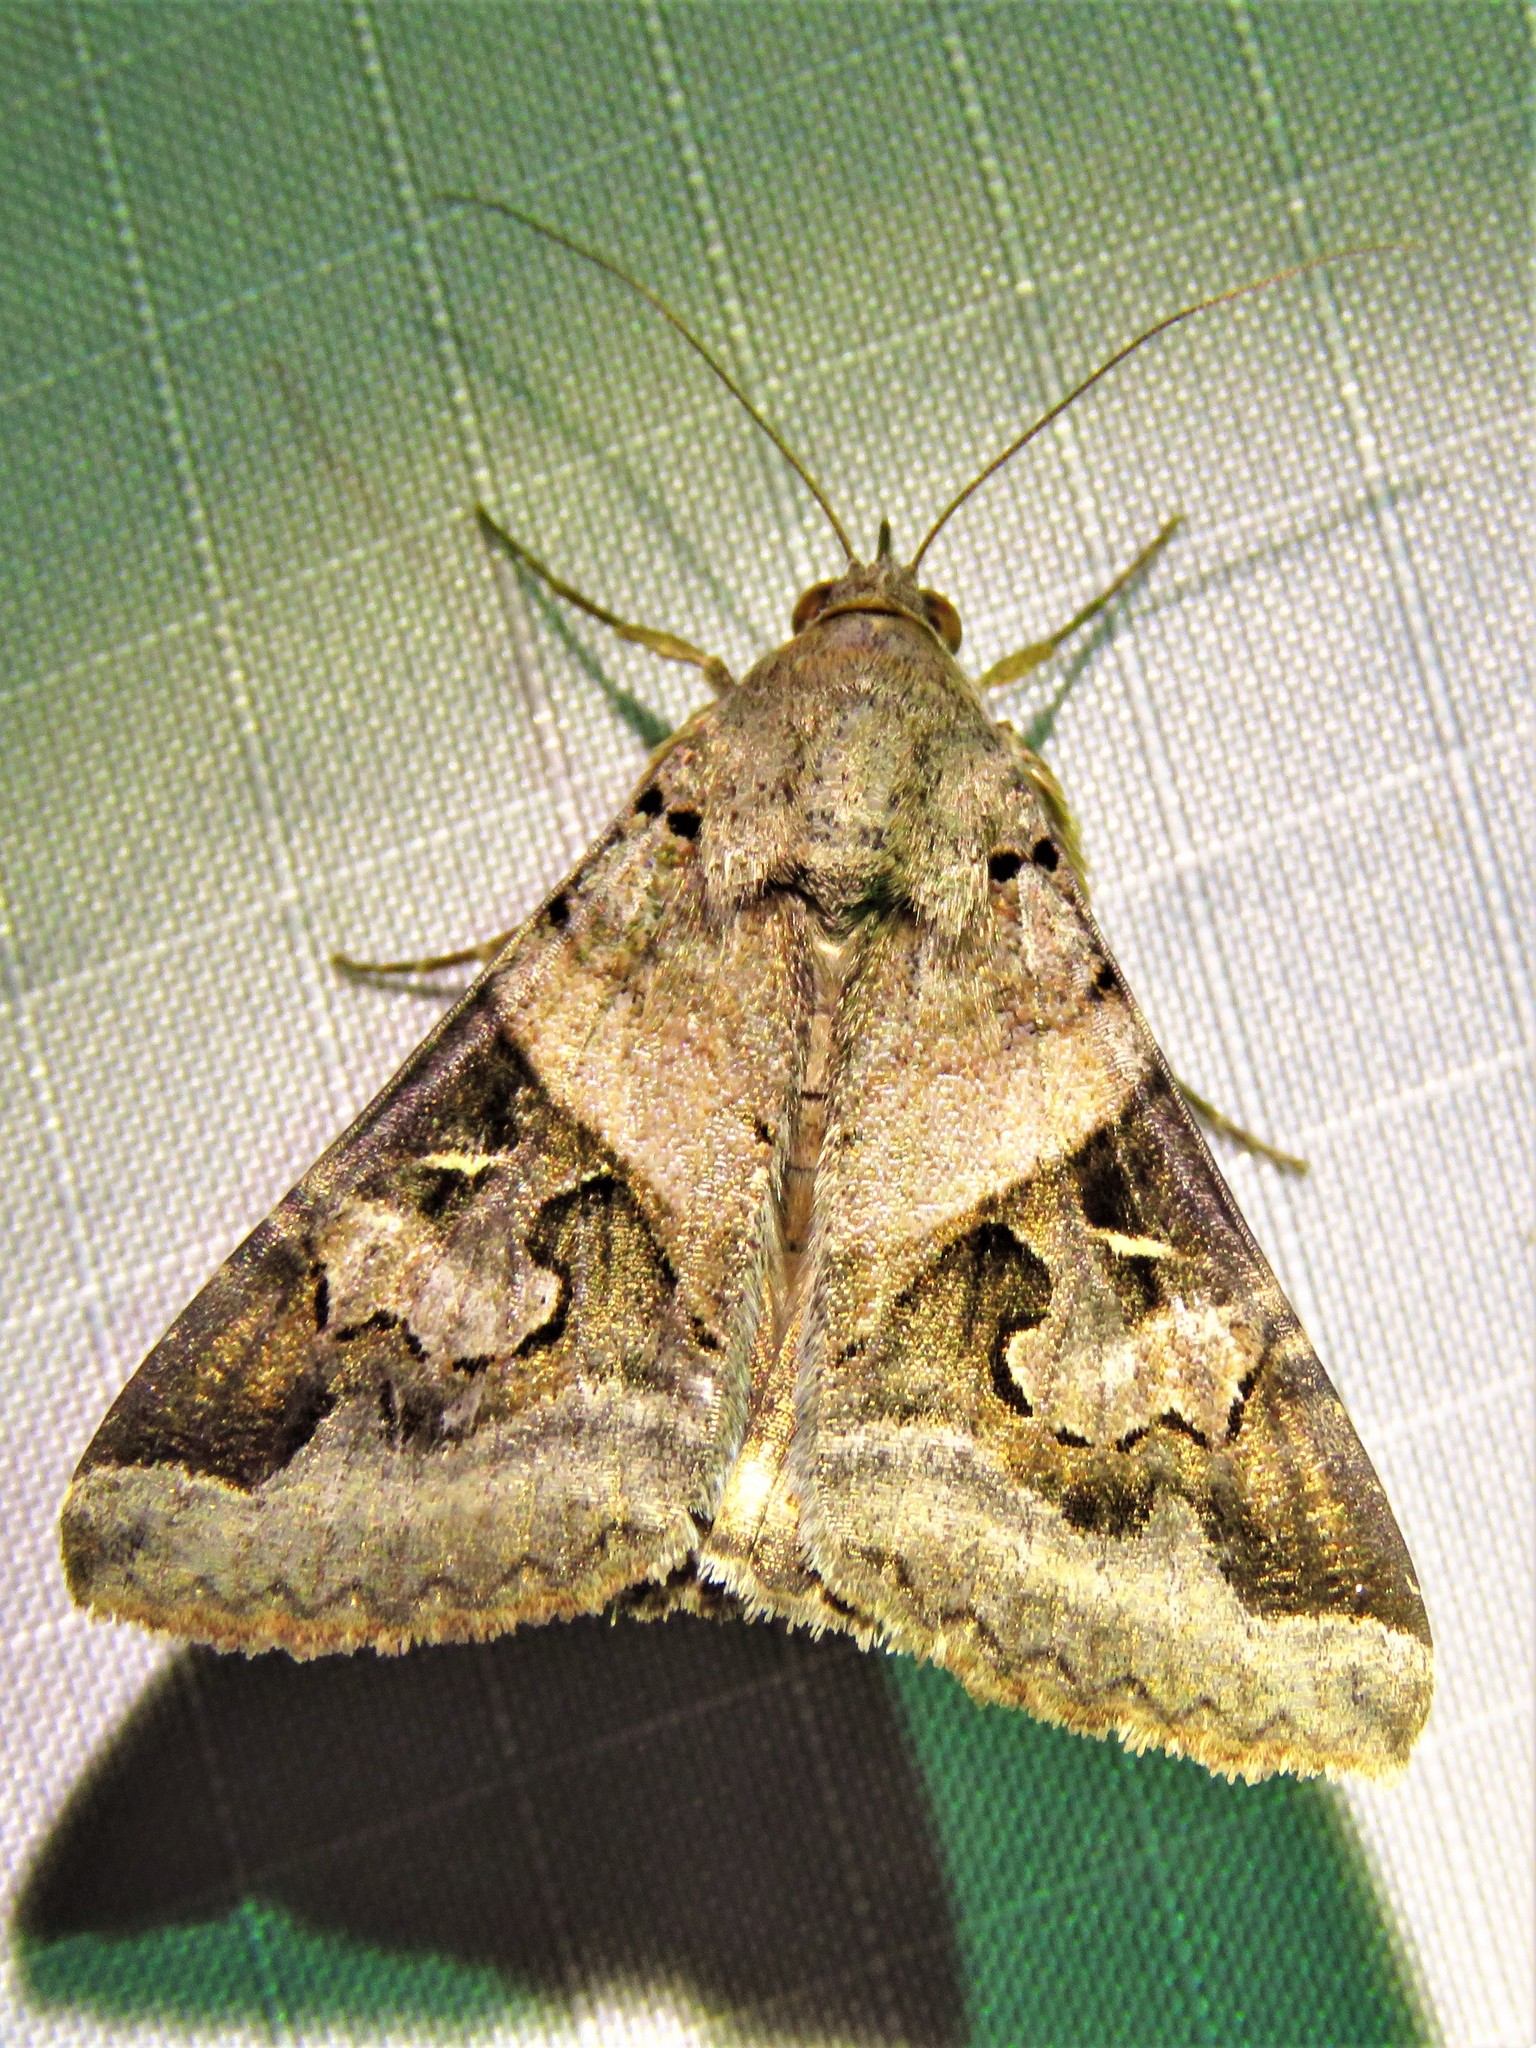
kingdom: Animalia
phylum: Arthropoda
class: Insecta
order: Lepidoptera
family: Erebidae
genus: Melipotis
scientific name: Melipotis indomita
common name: Moth
